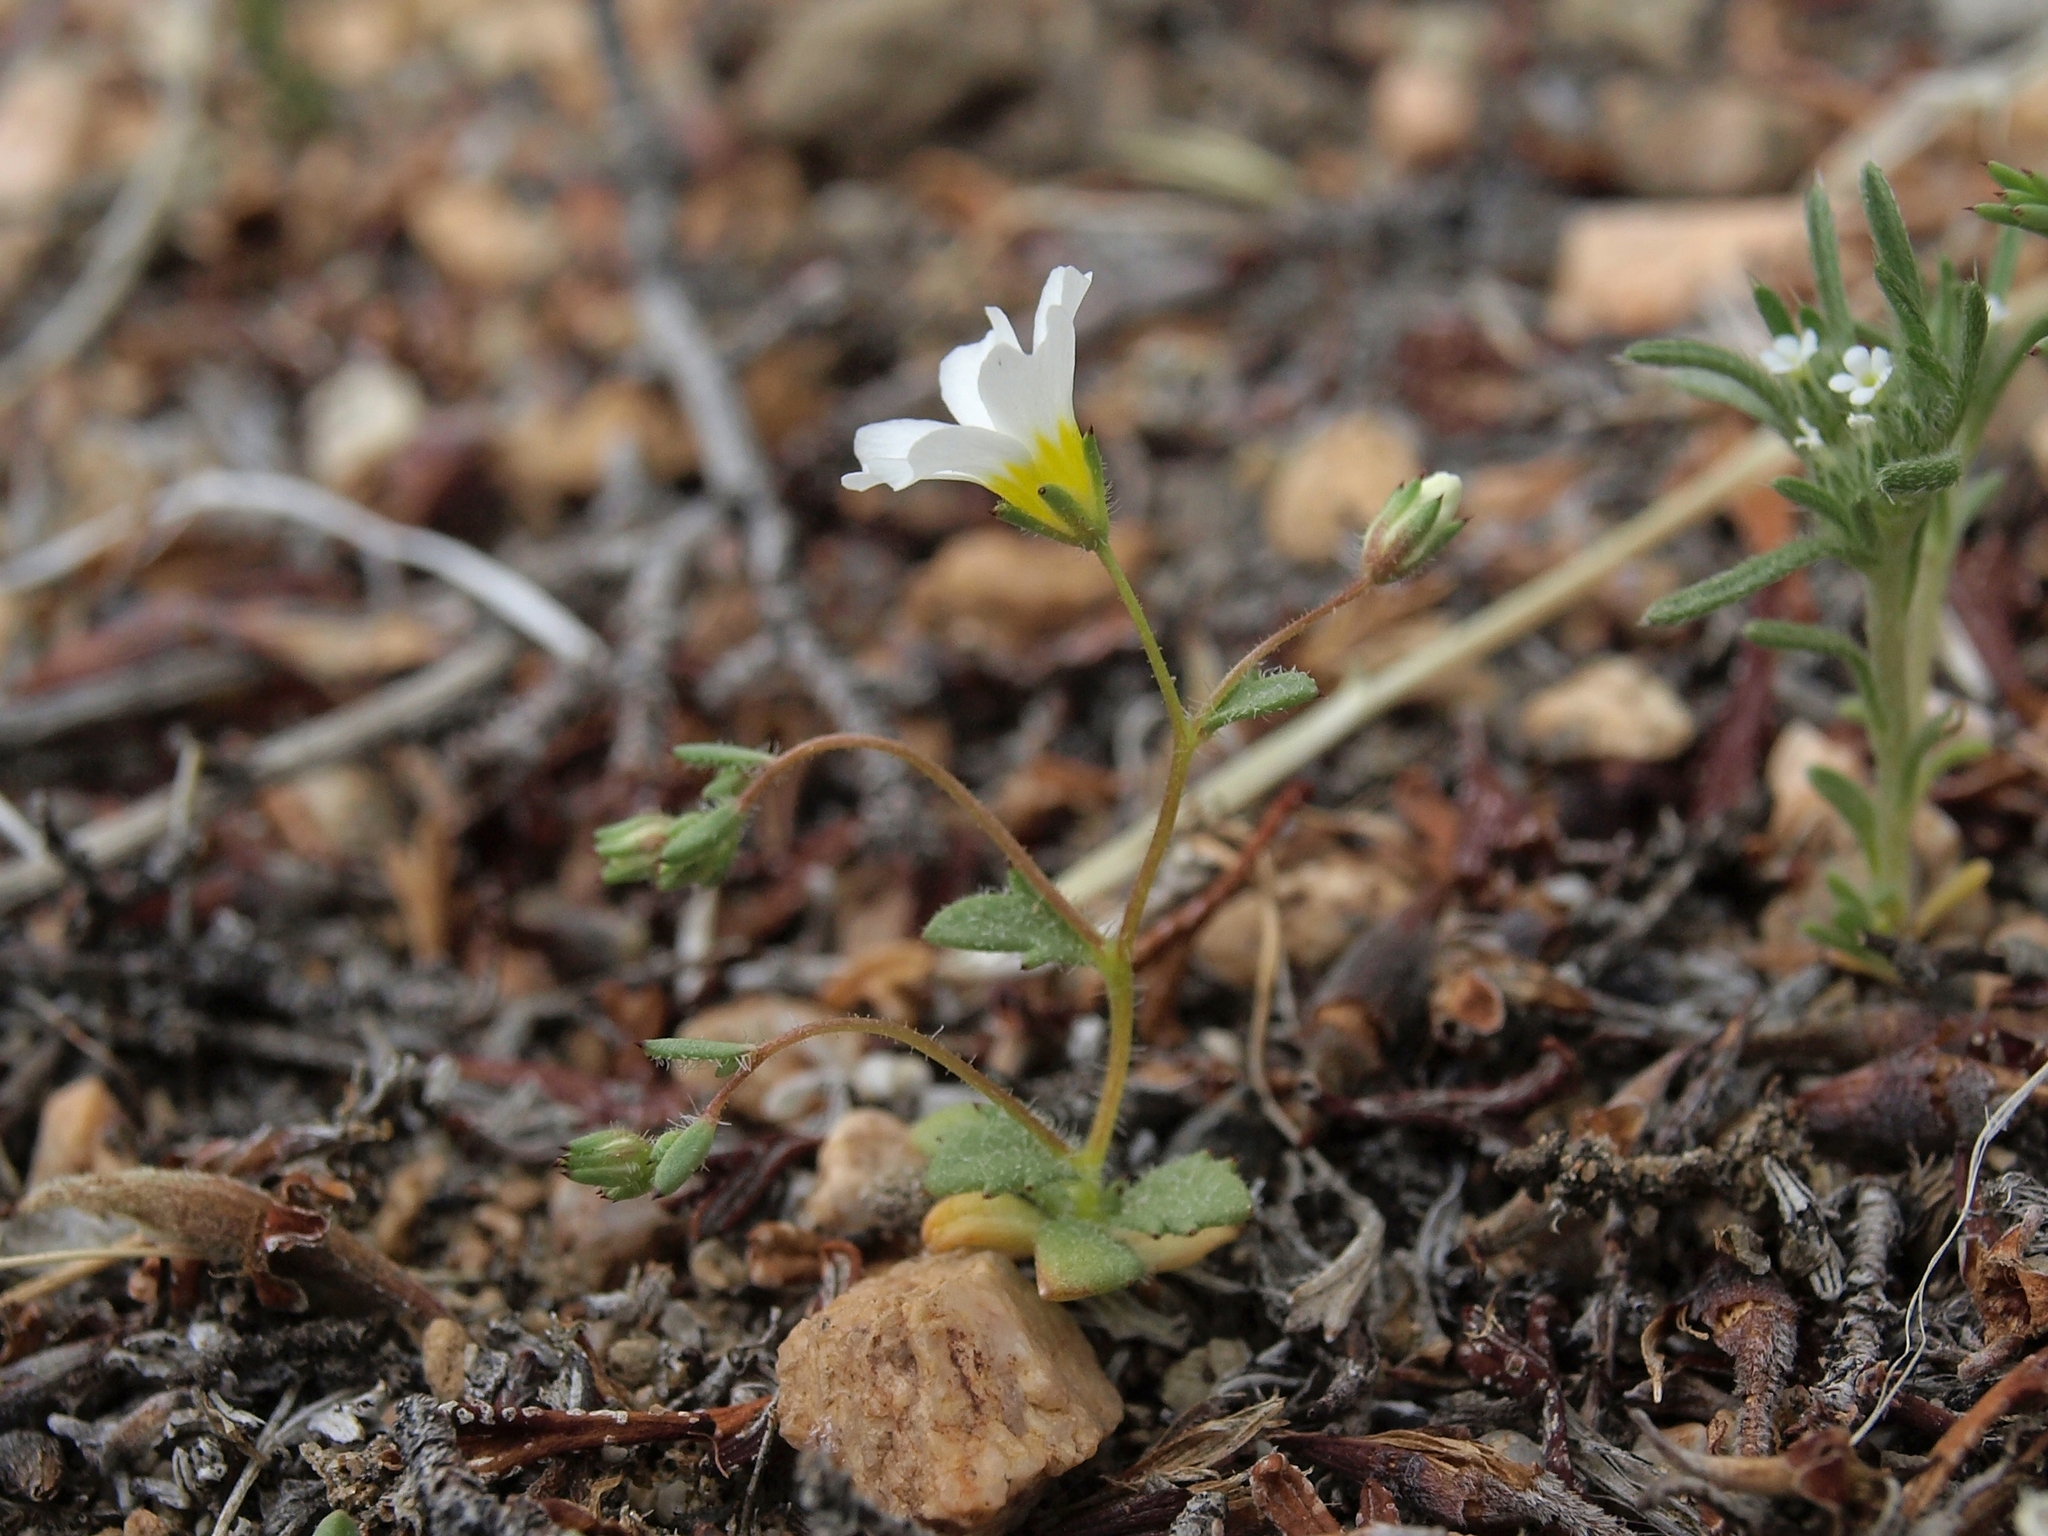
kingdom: Plantae
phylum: Tracheophyta
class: Magnoliopsida
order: Ericales
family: Polemoniaceae
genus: Linanthus
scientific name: Linanthus inyoensis
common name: Inyo gilia
